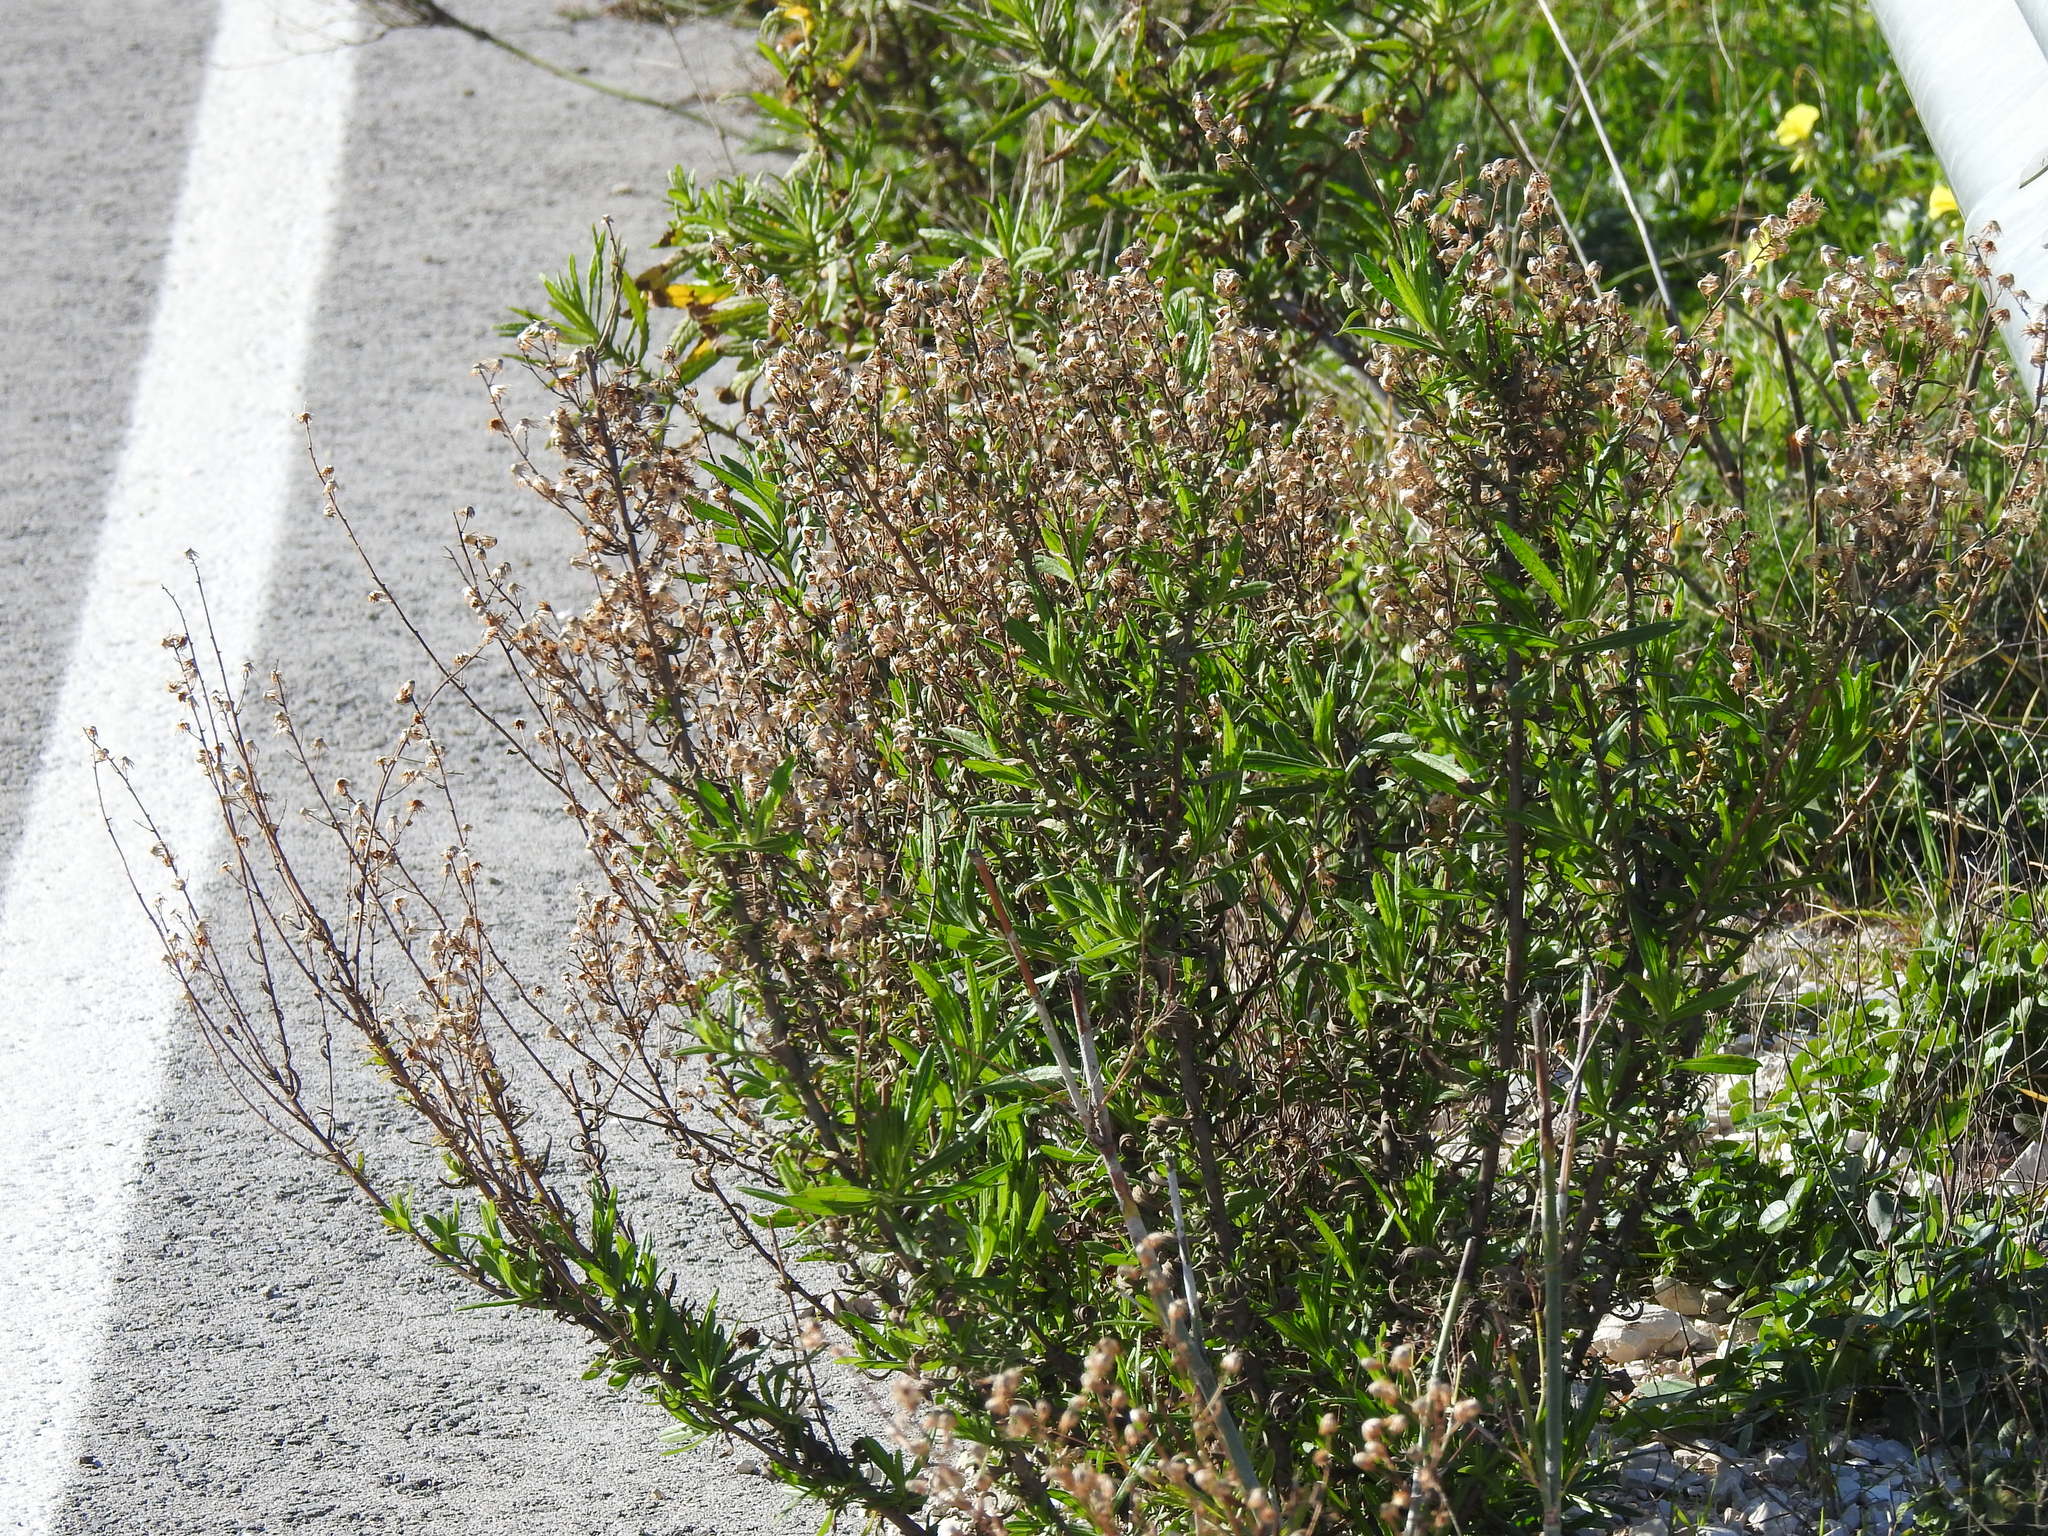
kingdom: Plantae
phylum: Tracheophyta
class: Magnoliopsida
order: Asterales
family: Asteraceae
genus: Dittrichia
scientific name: Dittrichia viscosa
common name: Woody fleabane
